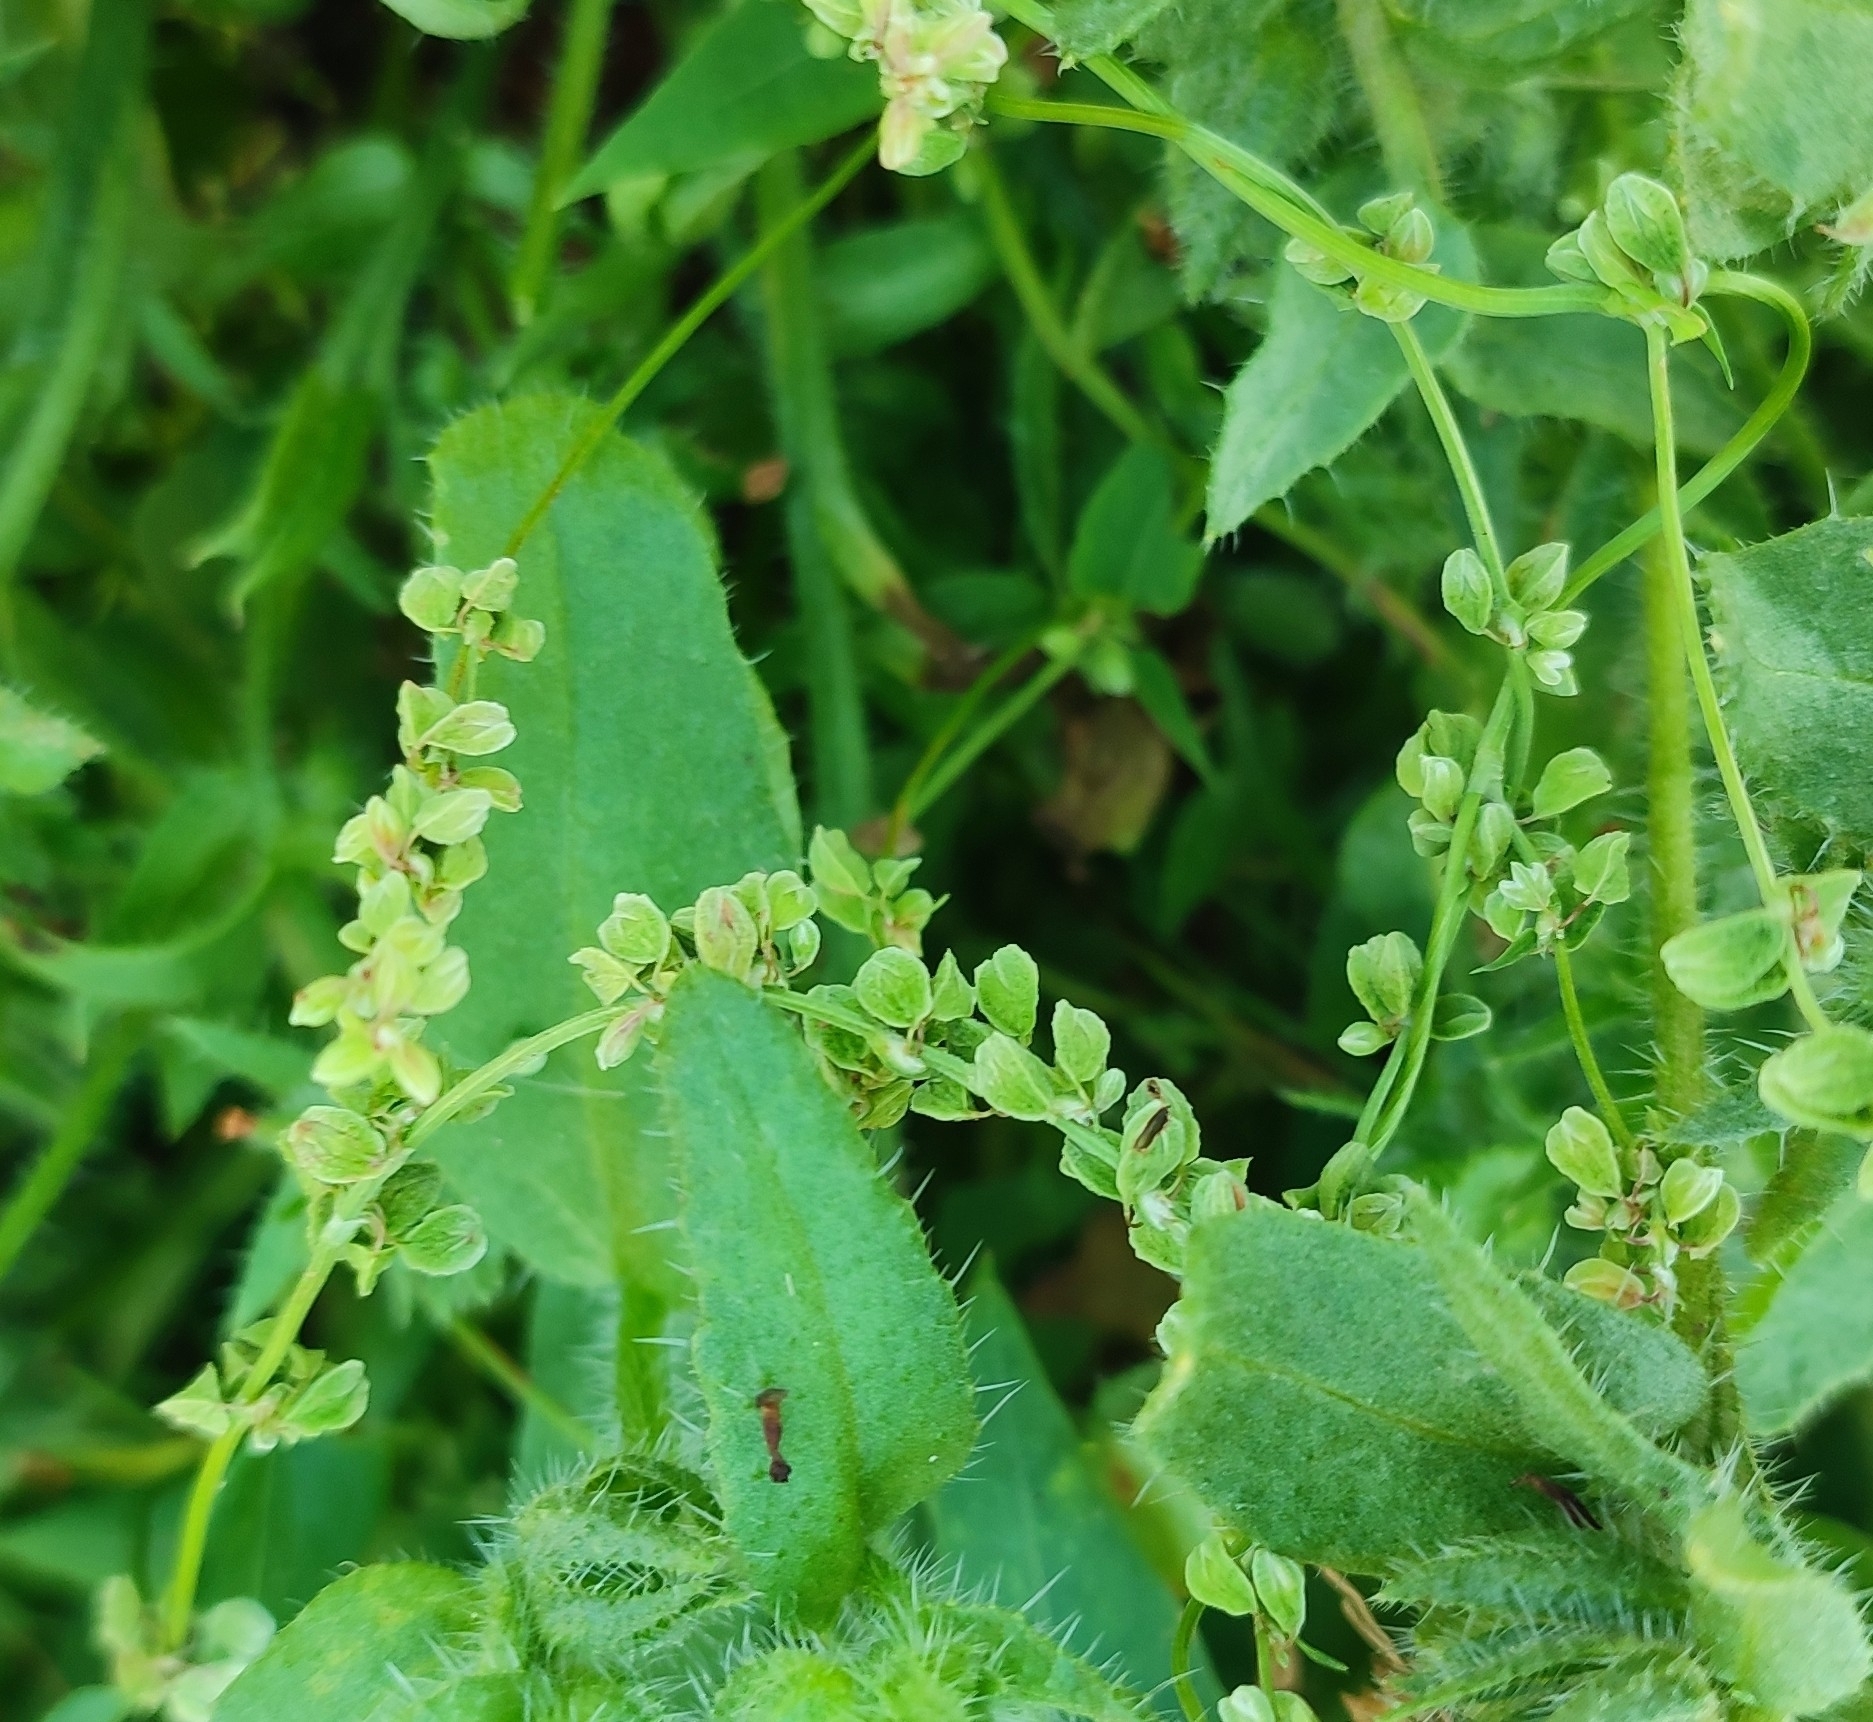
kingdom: Plantae
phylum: Tracheophyta
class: Magnoliopsida
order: Caryophyllales
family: Polygonaceae
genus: Fallopia
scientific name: Fallopia convolvulus
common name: Black bindweed
